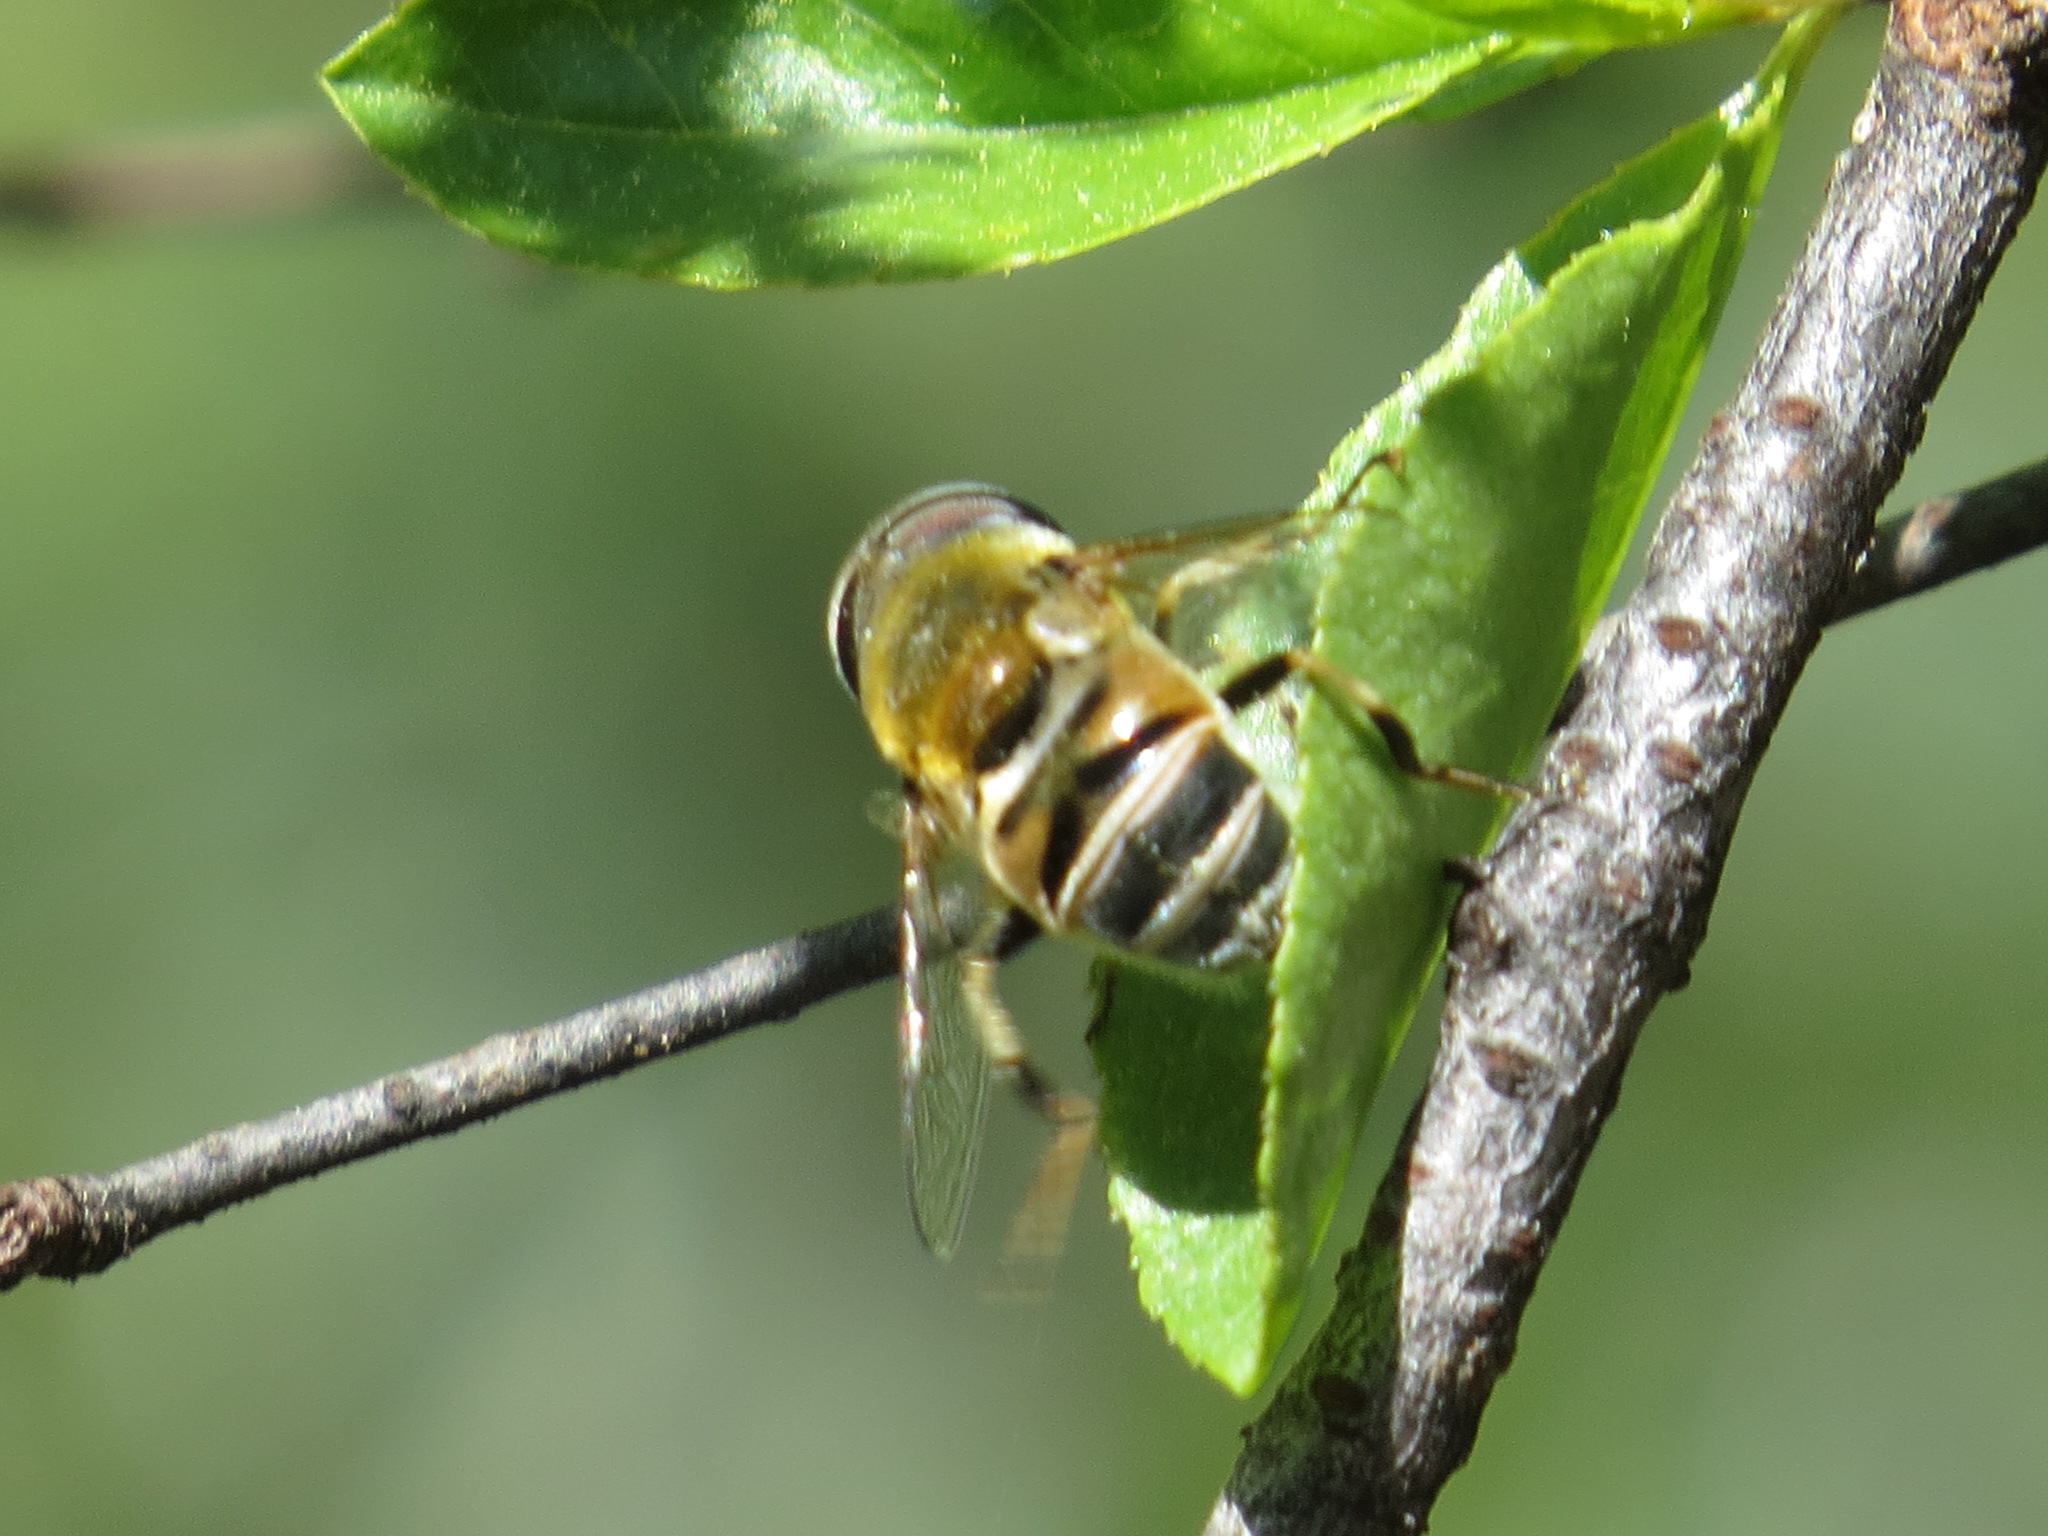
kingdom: Animalia
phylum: Arthropoda
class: Insecta
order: Diptera
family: Syrphidae
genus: Eristalis
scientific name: Eristalis stipator
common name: Yellow-shouldered drone fly
